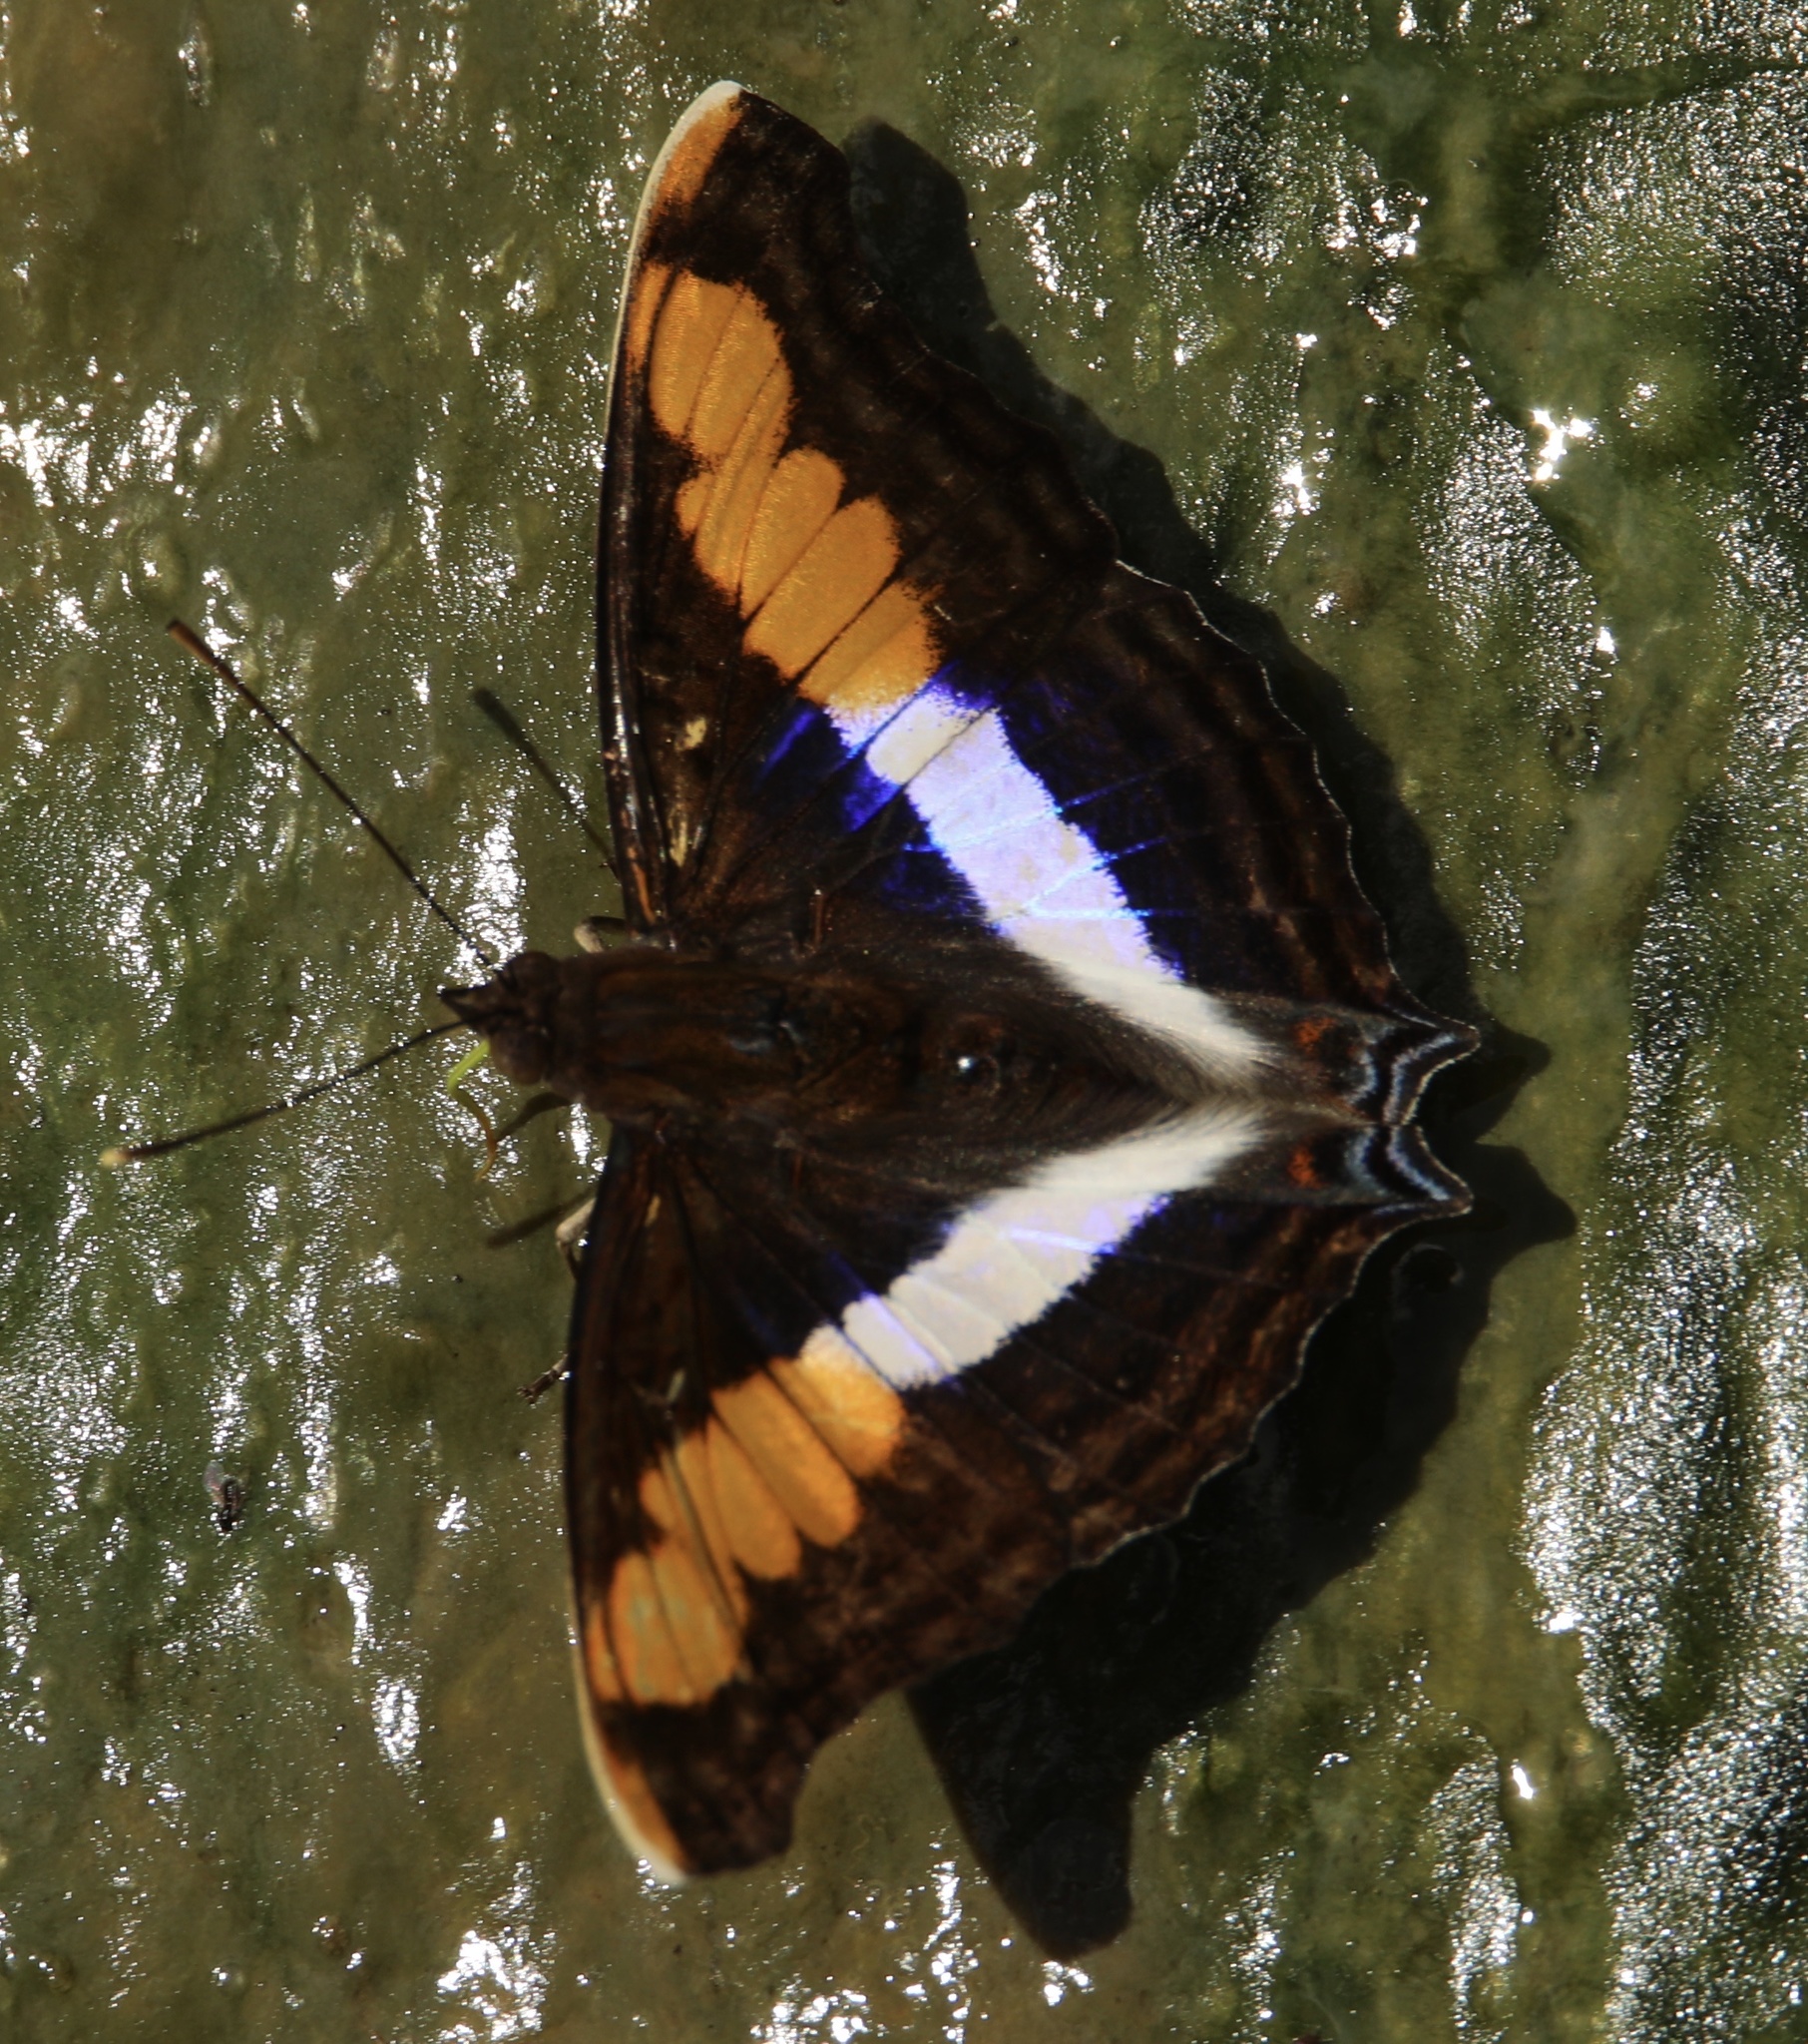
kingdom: Animalia
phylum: Arthropoda
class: Insecta
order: Lepidoptera
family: Nymphalidae
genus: Doxocopa
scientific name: Doxocopa laure
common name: Silver emperor
